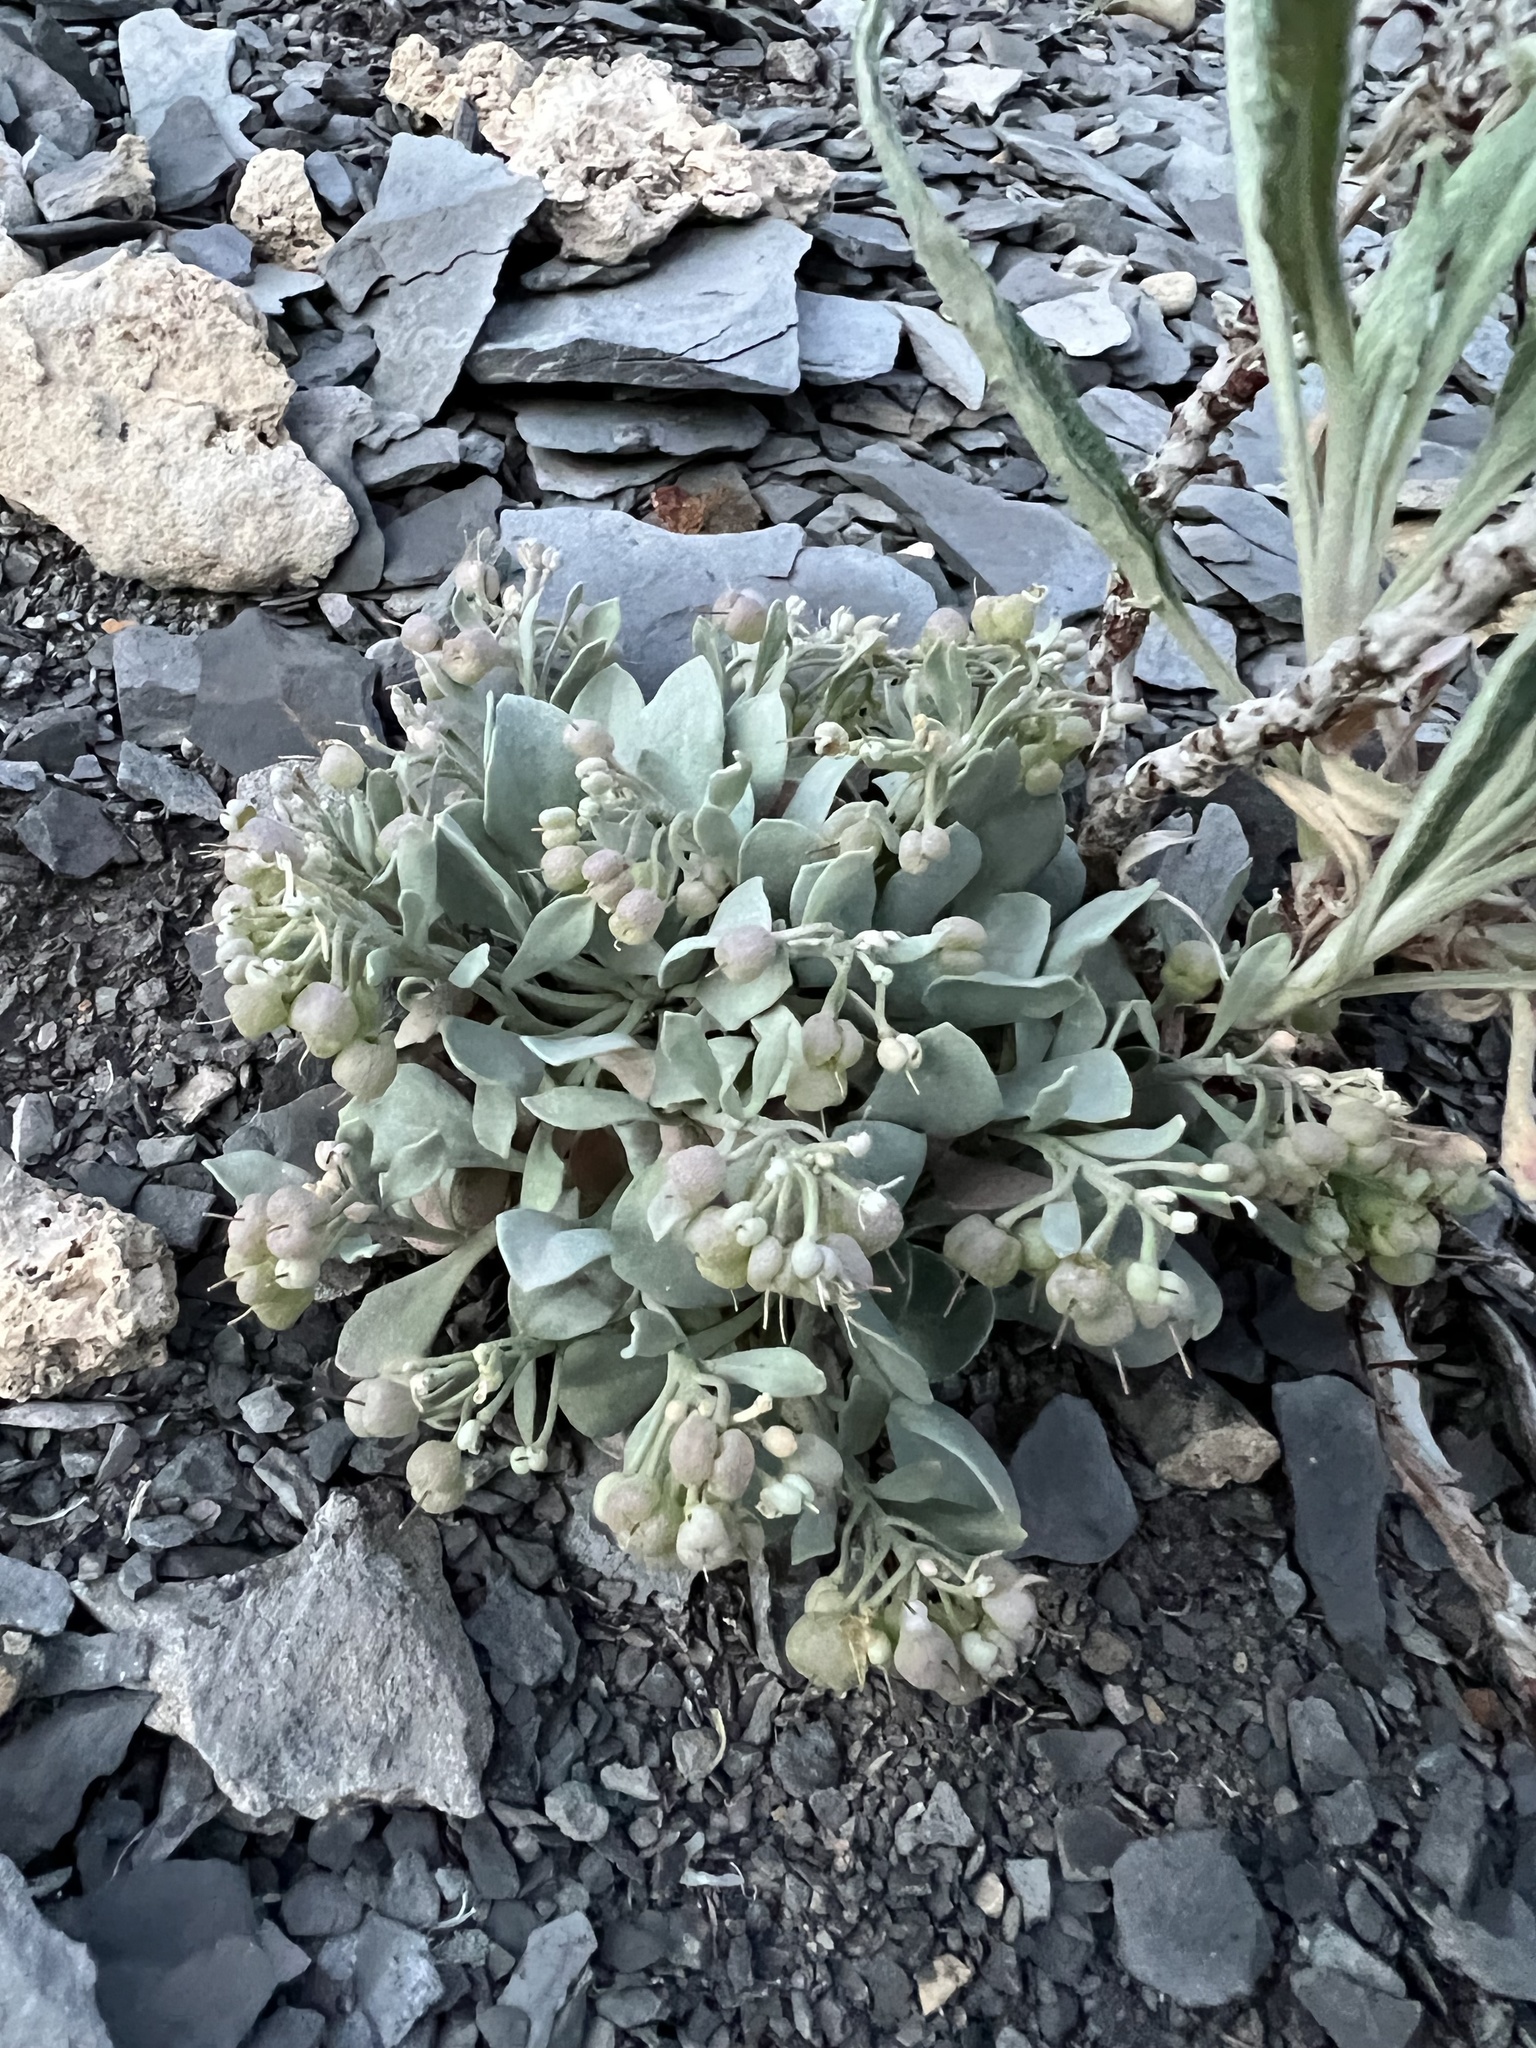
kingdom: Plantae
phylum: Tracheophyta
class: Magnoliopsida
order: Brassicales
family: Brassicaceae
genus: Physaria
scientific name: Physaria bellii
